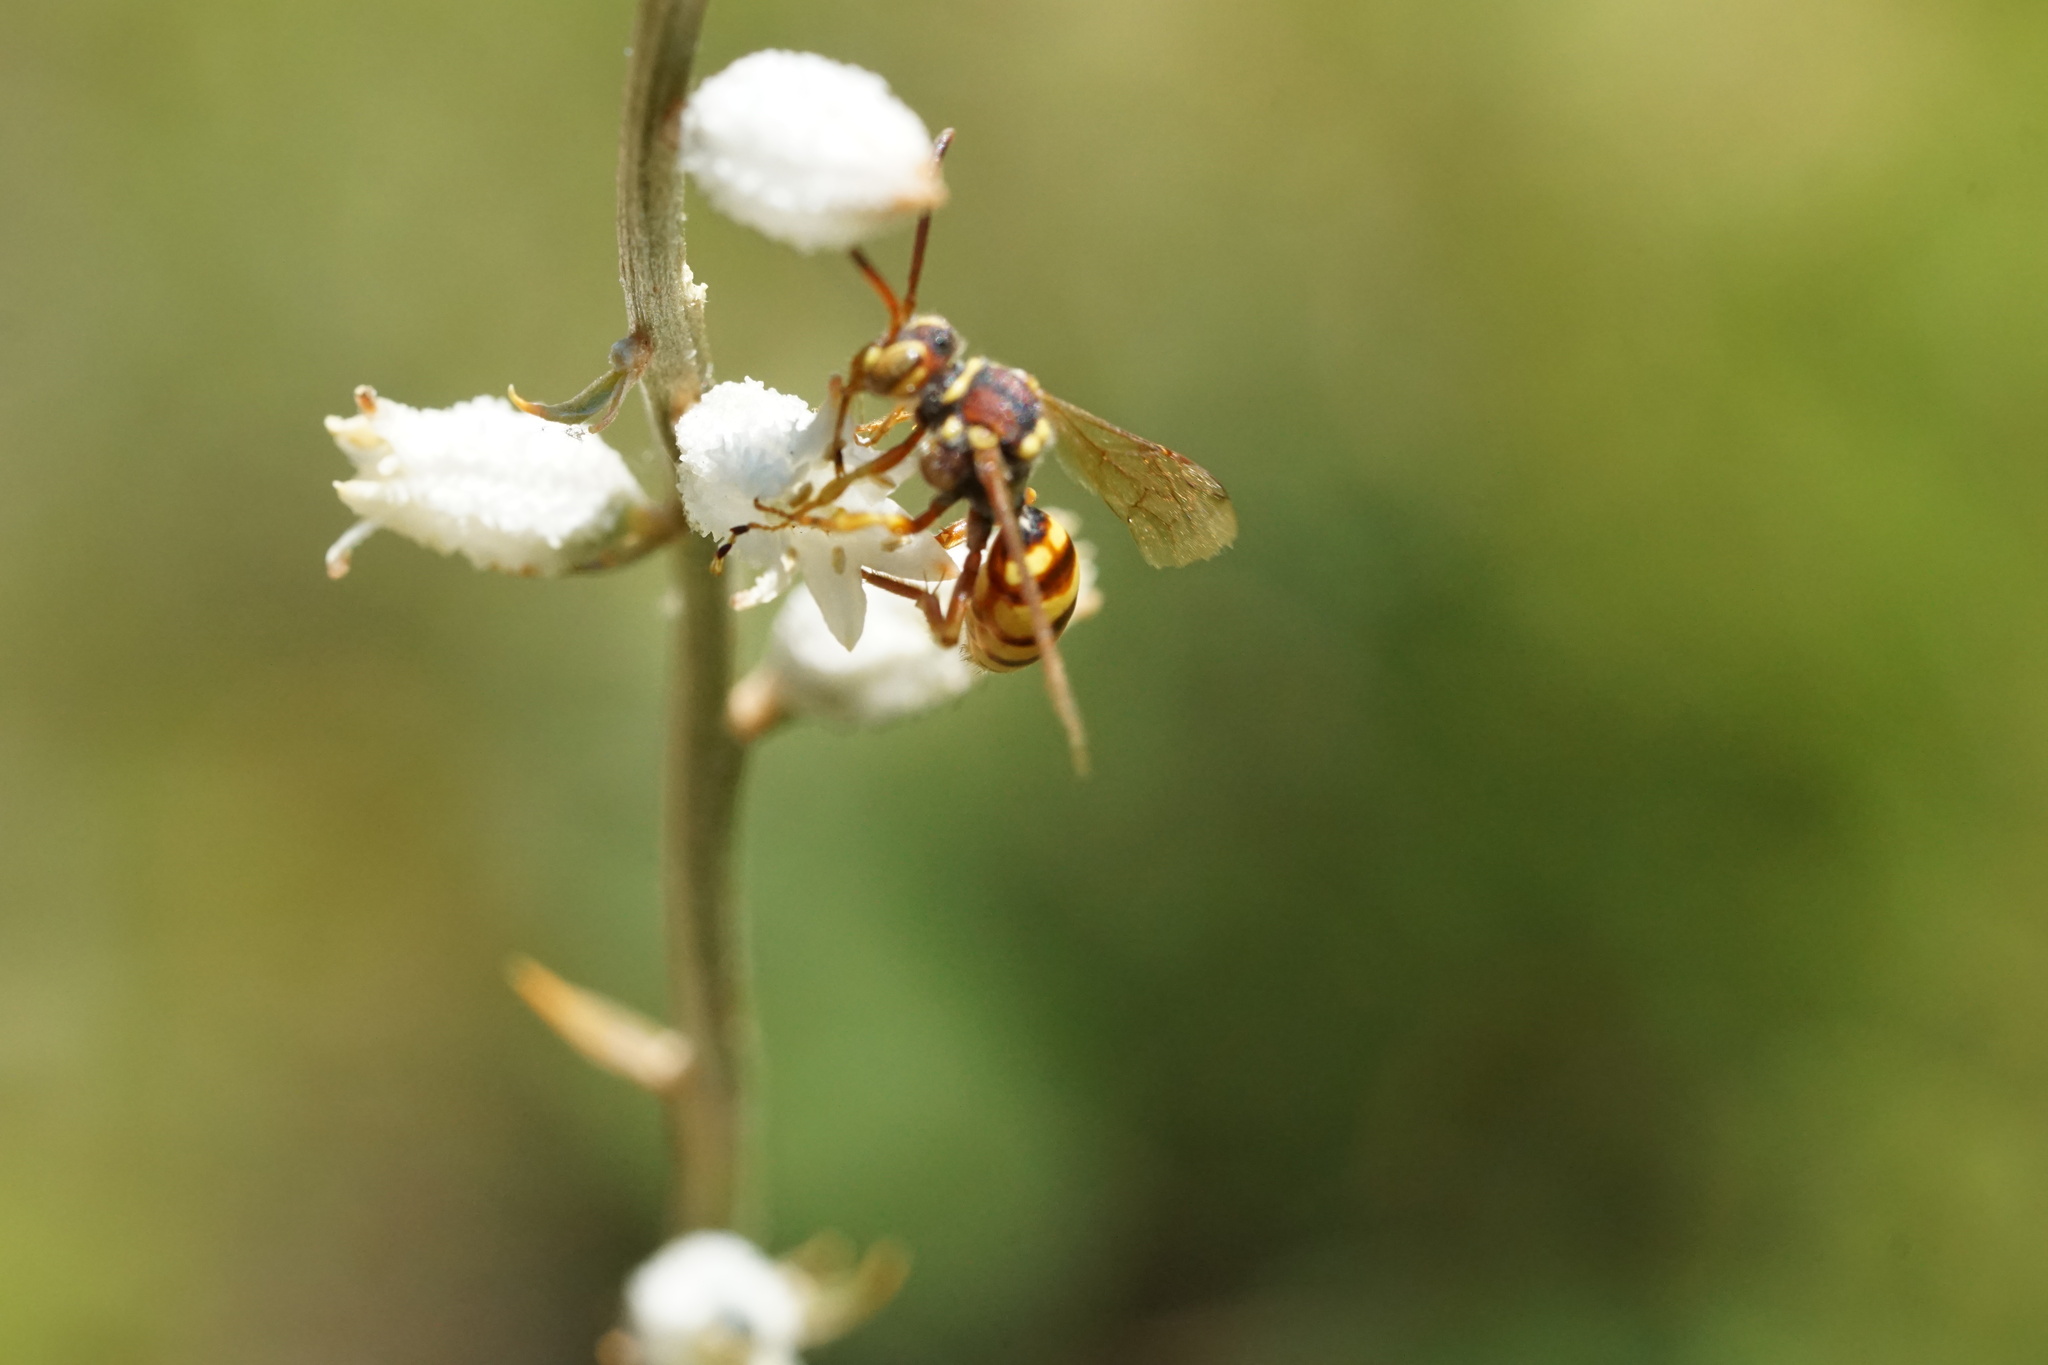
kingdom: Animalia
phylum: Arthropoda
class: Insecta
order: Hymenoptera
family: Apidae
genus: Nomada
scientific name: Nomada luteoloides
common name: Black-and-yellow nomad bee
